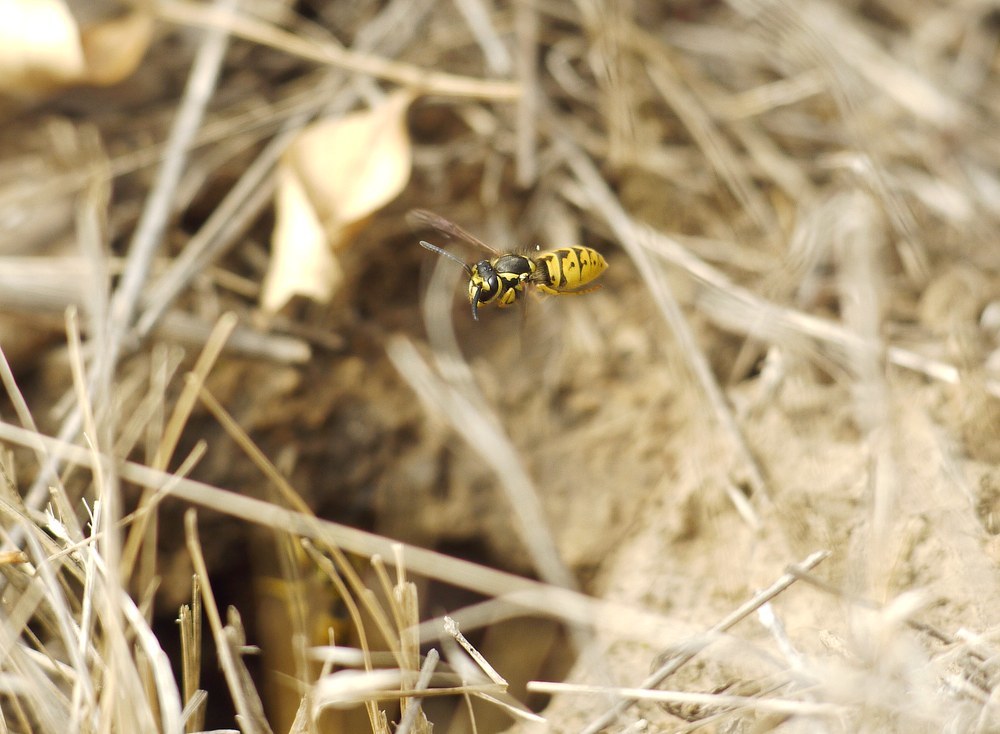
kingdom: Animalia
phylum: Arthropoda
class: Insecta
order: Hymenoptera
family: Vespidae
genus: Vespula
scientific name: Vespula germanica
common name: German wasp
